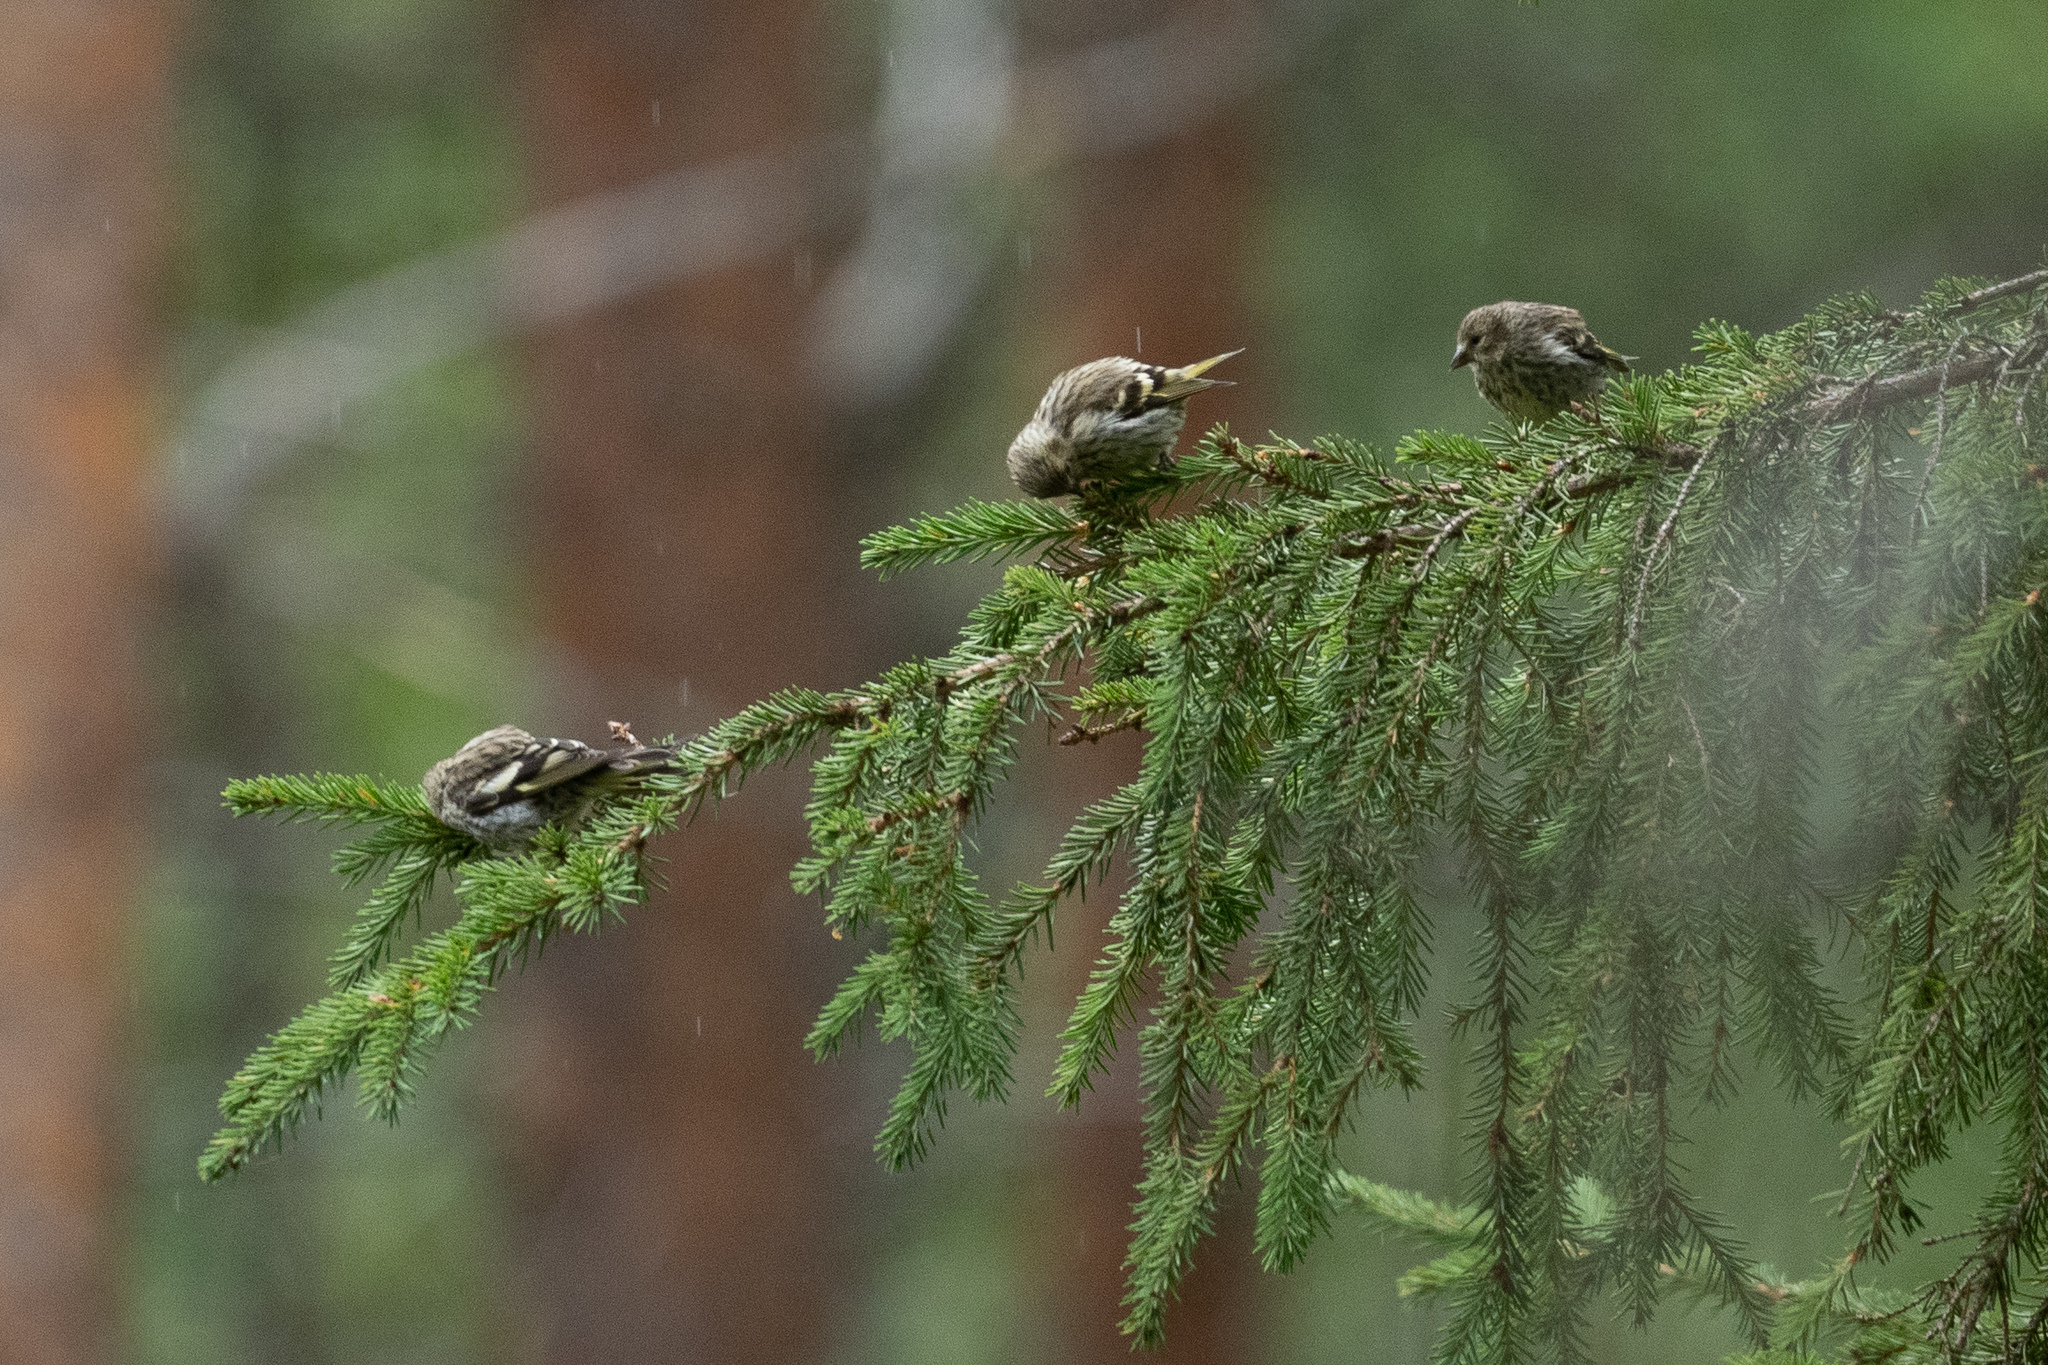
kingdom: Animalia
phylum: Chordata
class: Aves
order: Passeriformes
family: Fringillidae
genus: Spinus
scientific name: Spinus spinus
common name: Eurasian siskin
